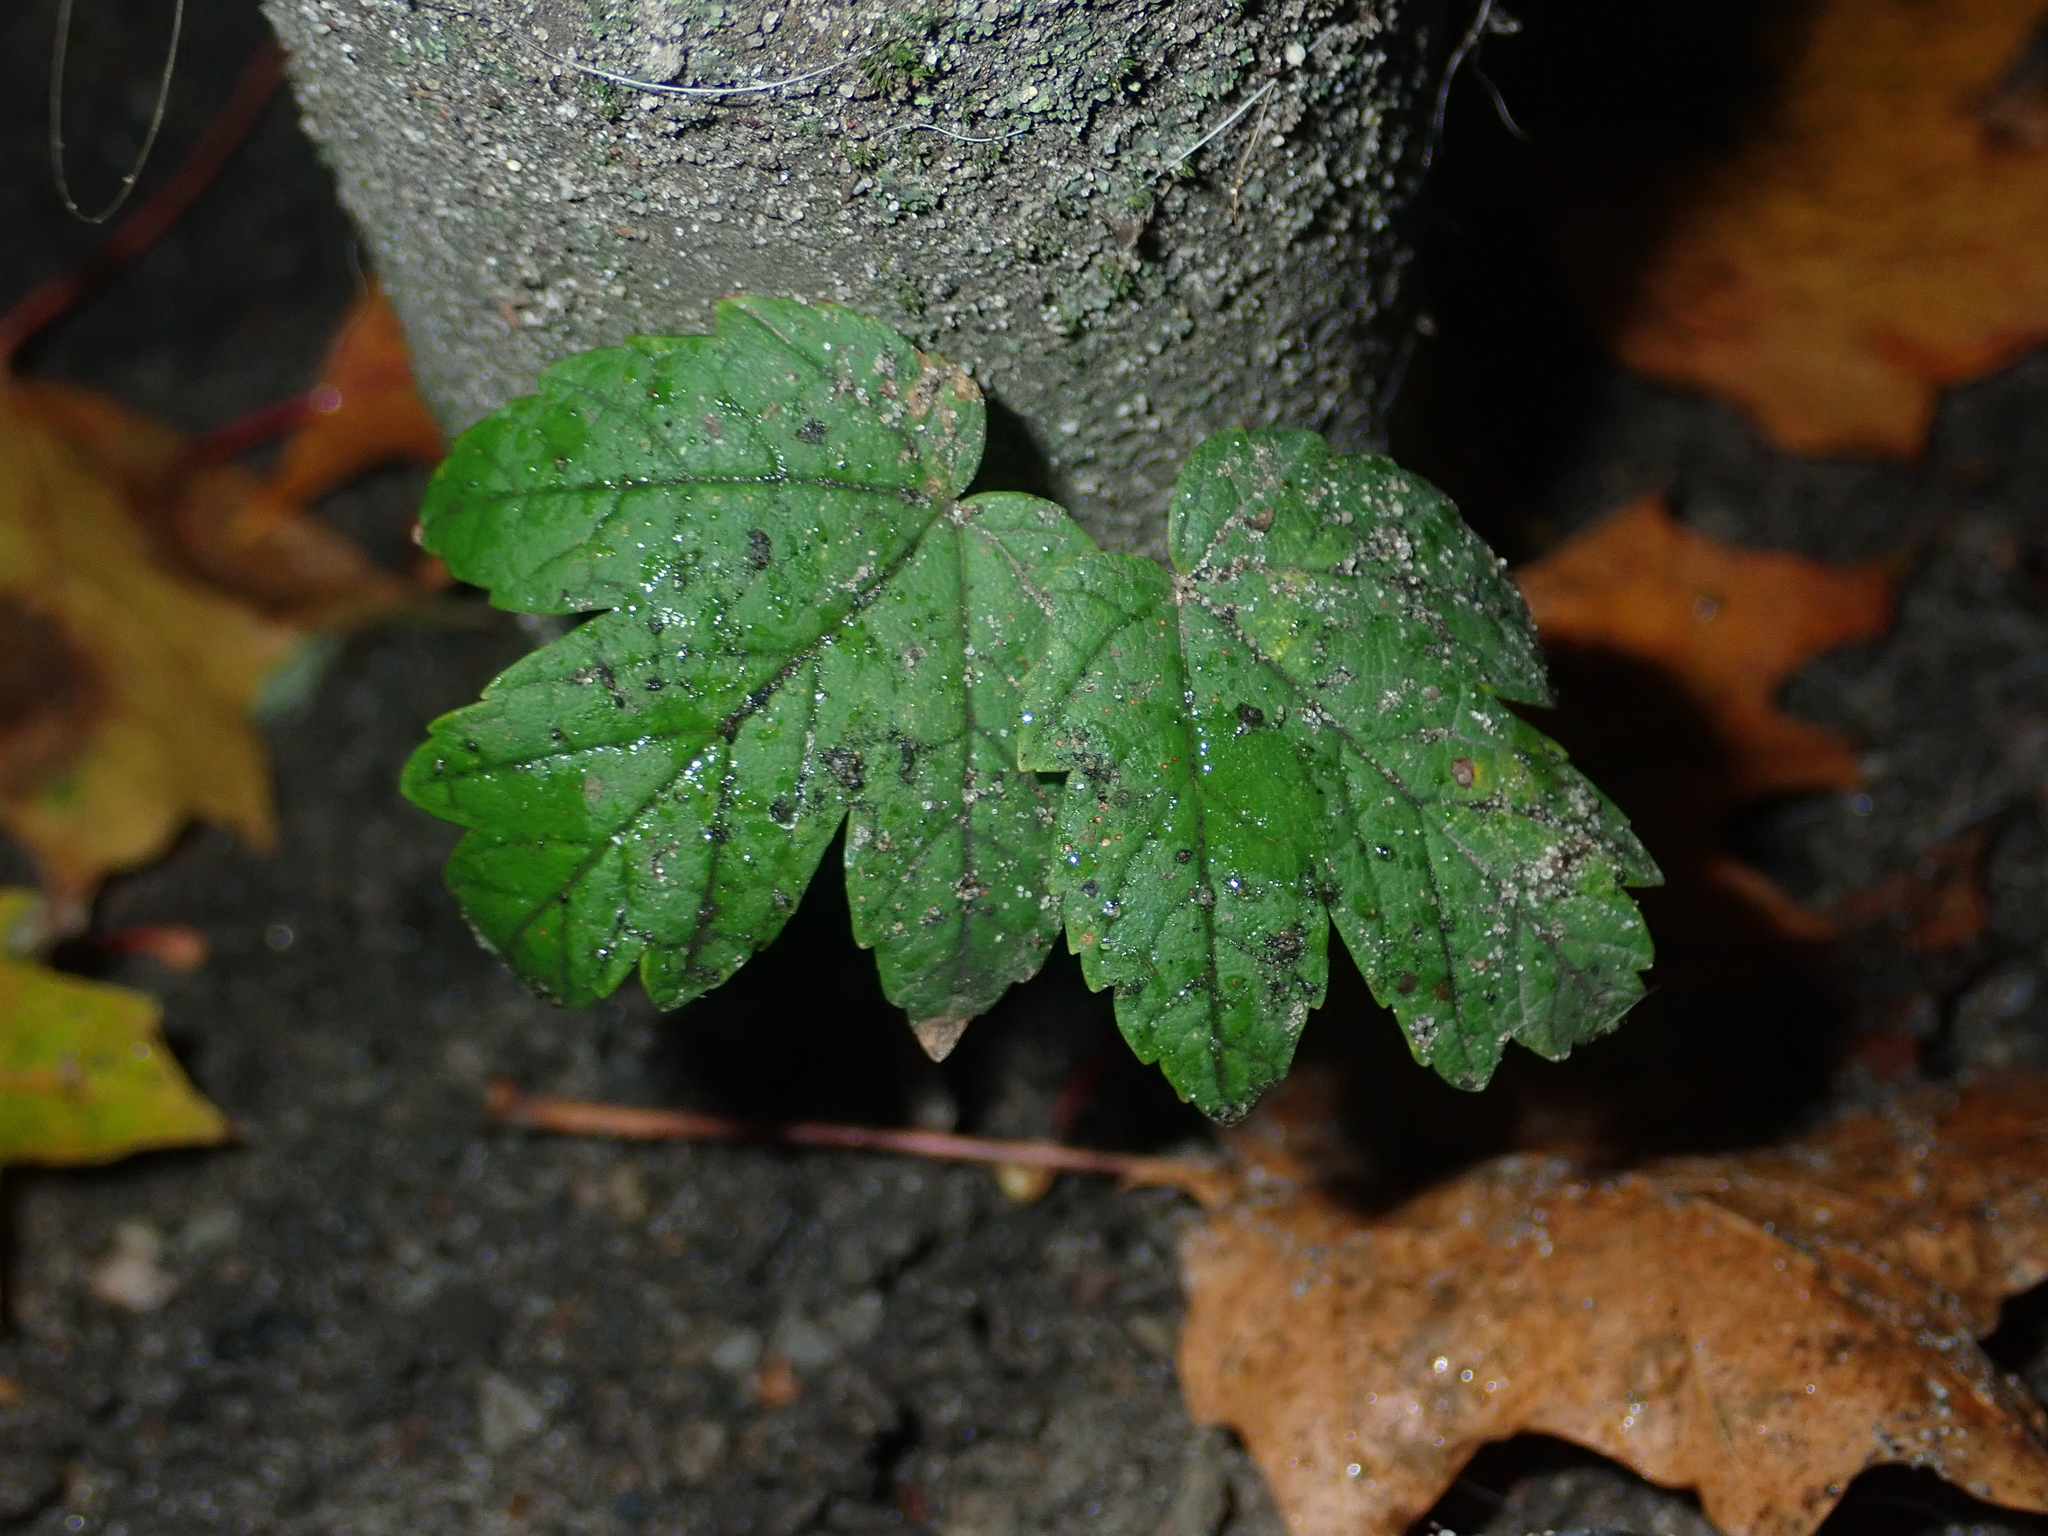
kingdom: Plantae
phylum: Tracheophyta
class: Magnoliopsida
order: Sapindales
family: Sapindaceae
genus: Acer
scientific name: Acer pseudoplatanus
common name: Sycamore
